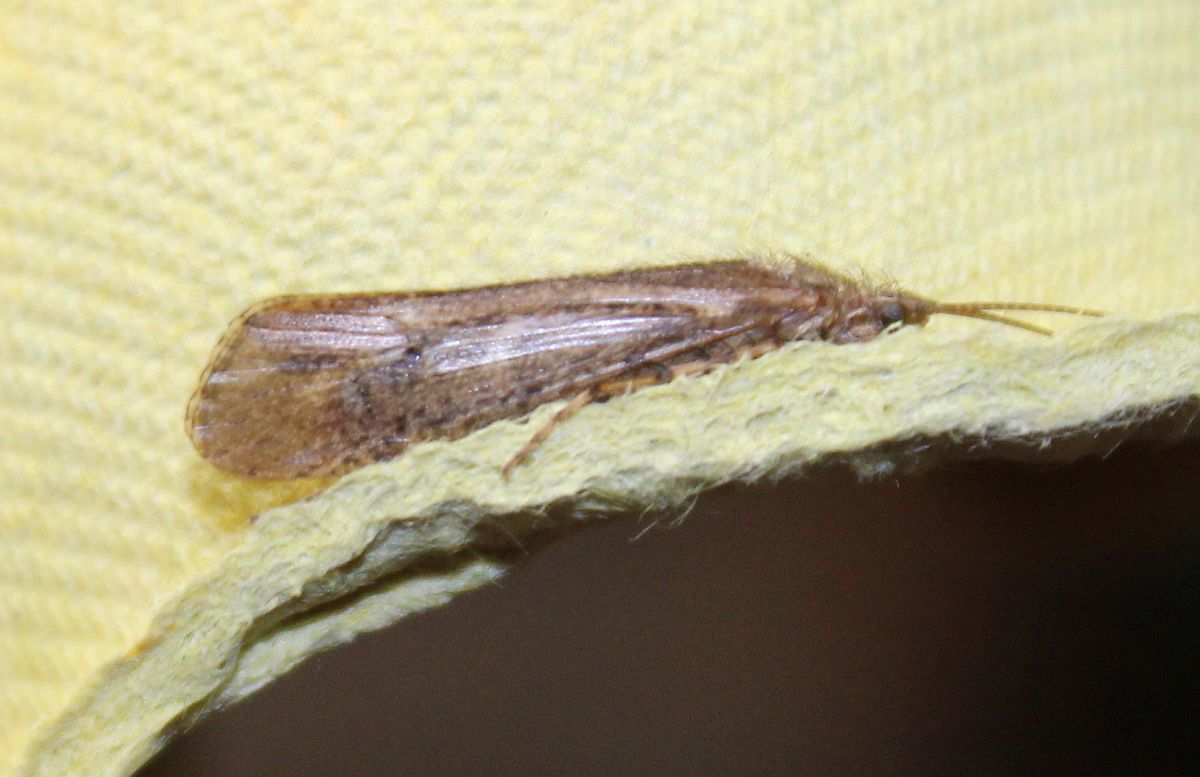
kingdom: Animalia
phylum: Arthropoda
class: Insecta
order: Trichoptera
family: Limnephilidae
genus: Limnephilus
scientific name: Limnephilus affinis
